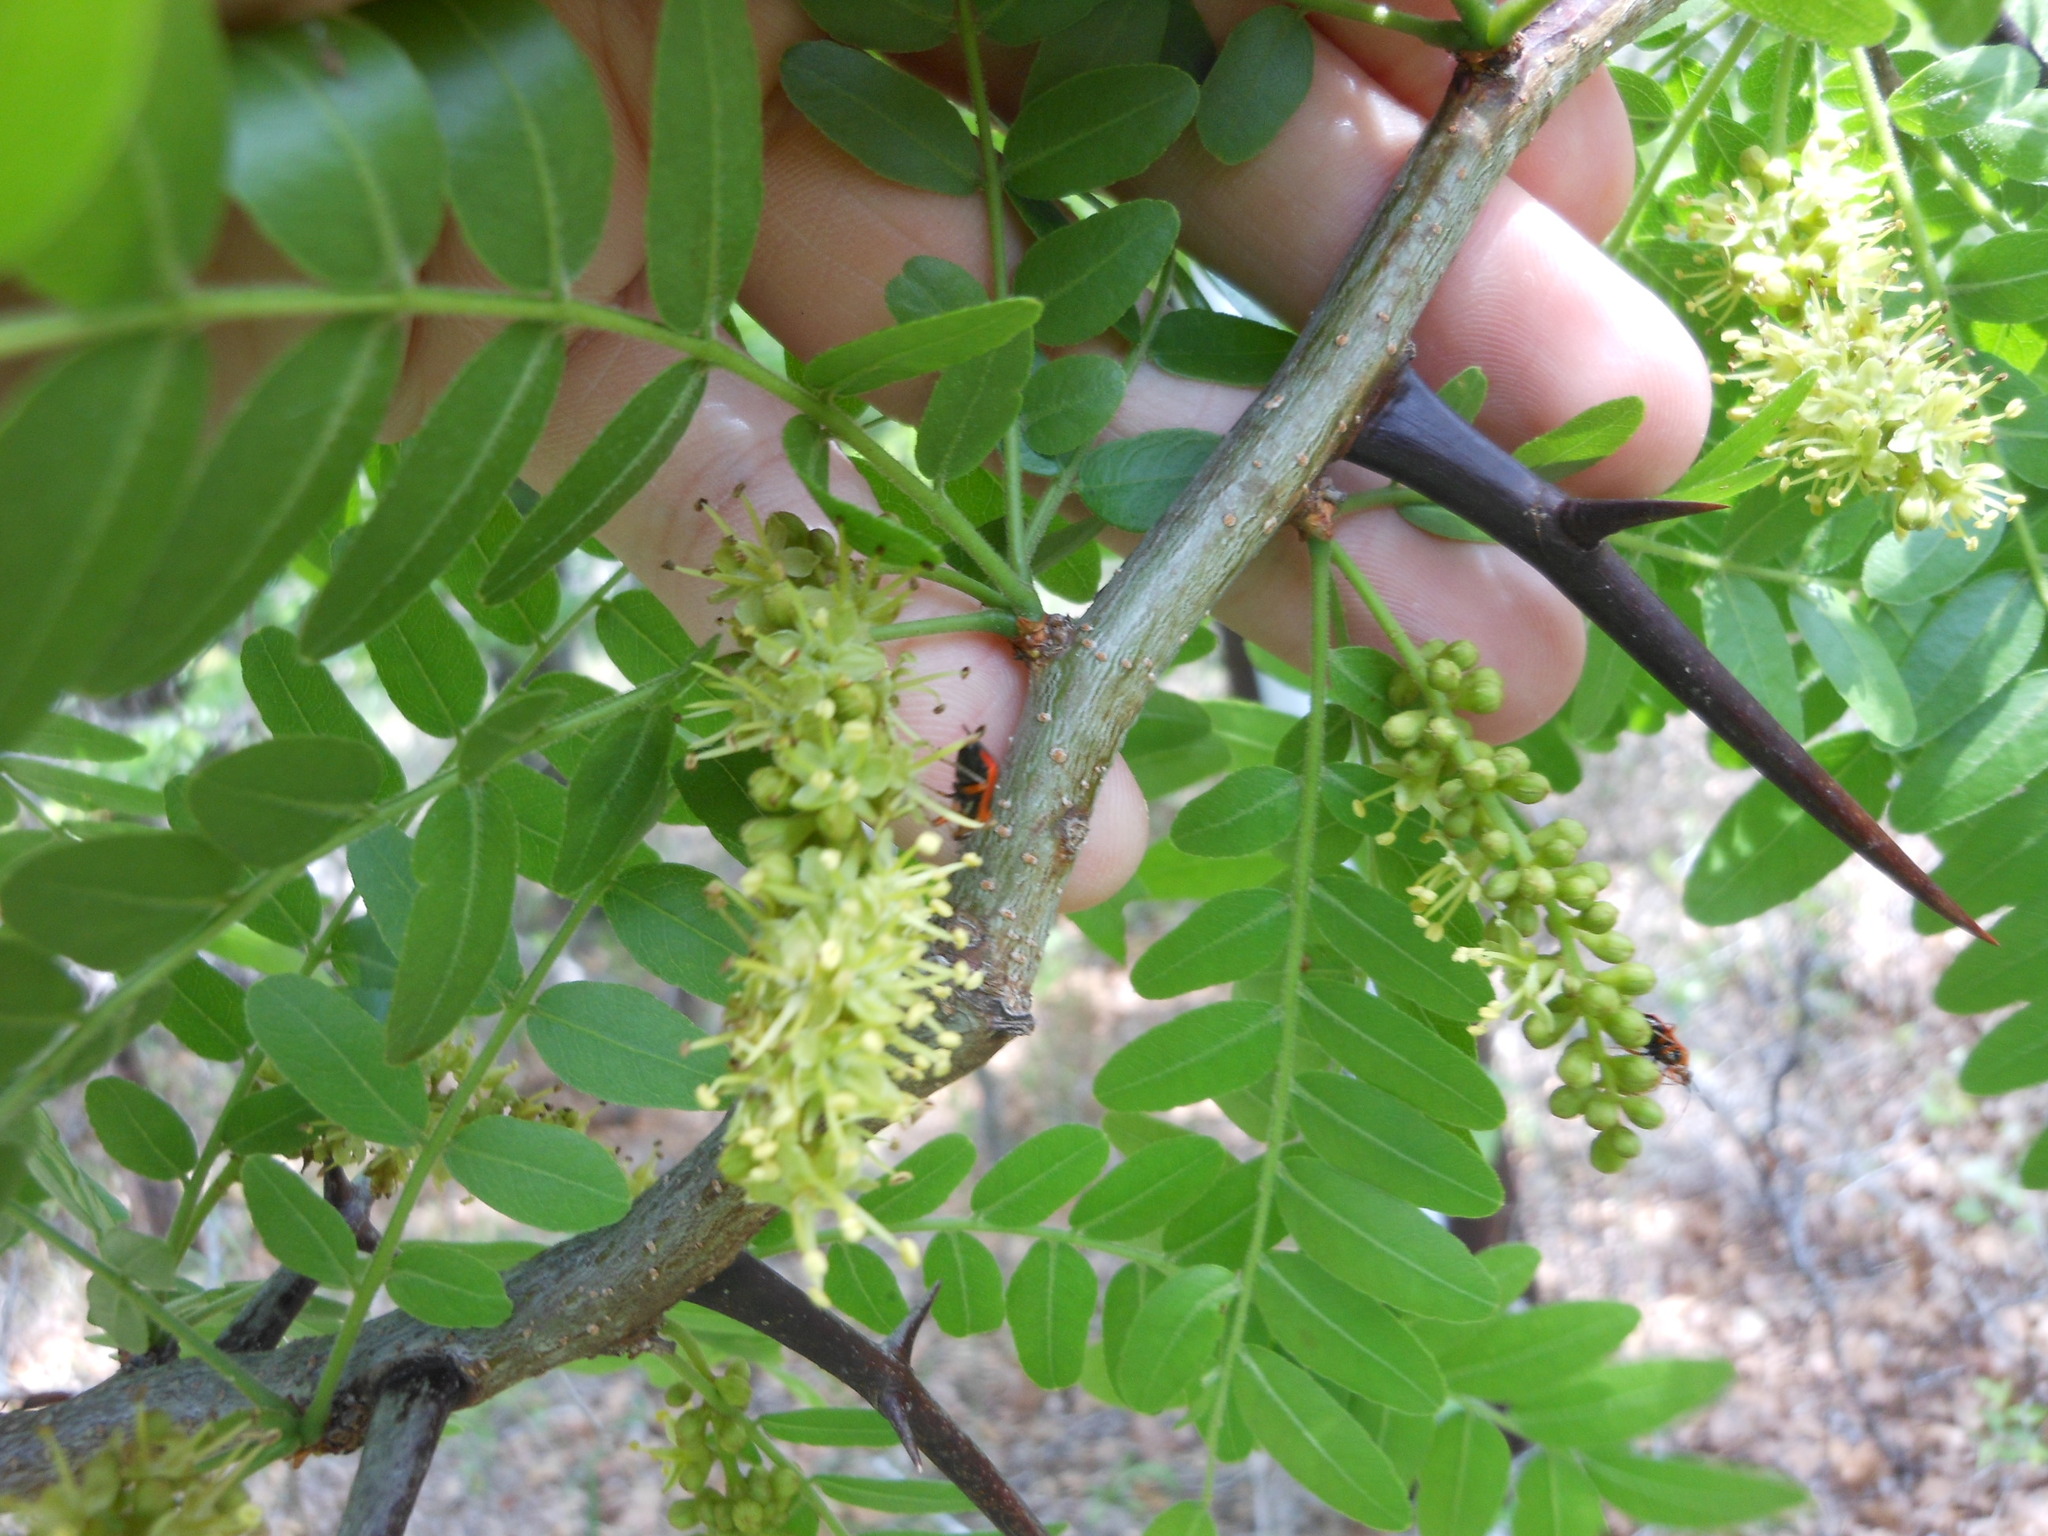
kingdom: Plantae
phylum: Tracheophyta
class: Magnoliopsida
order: Fabales
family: Fabaceae
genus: Gleditsia
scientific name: Gleditsia triacanthos
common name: Common honeylocust
